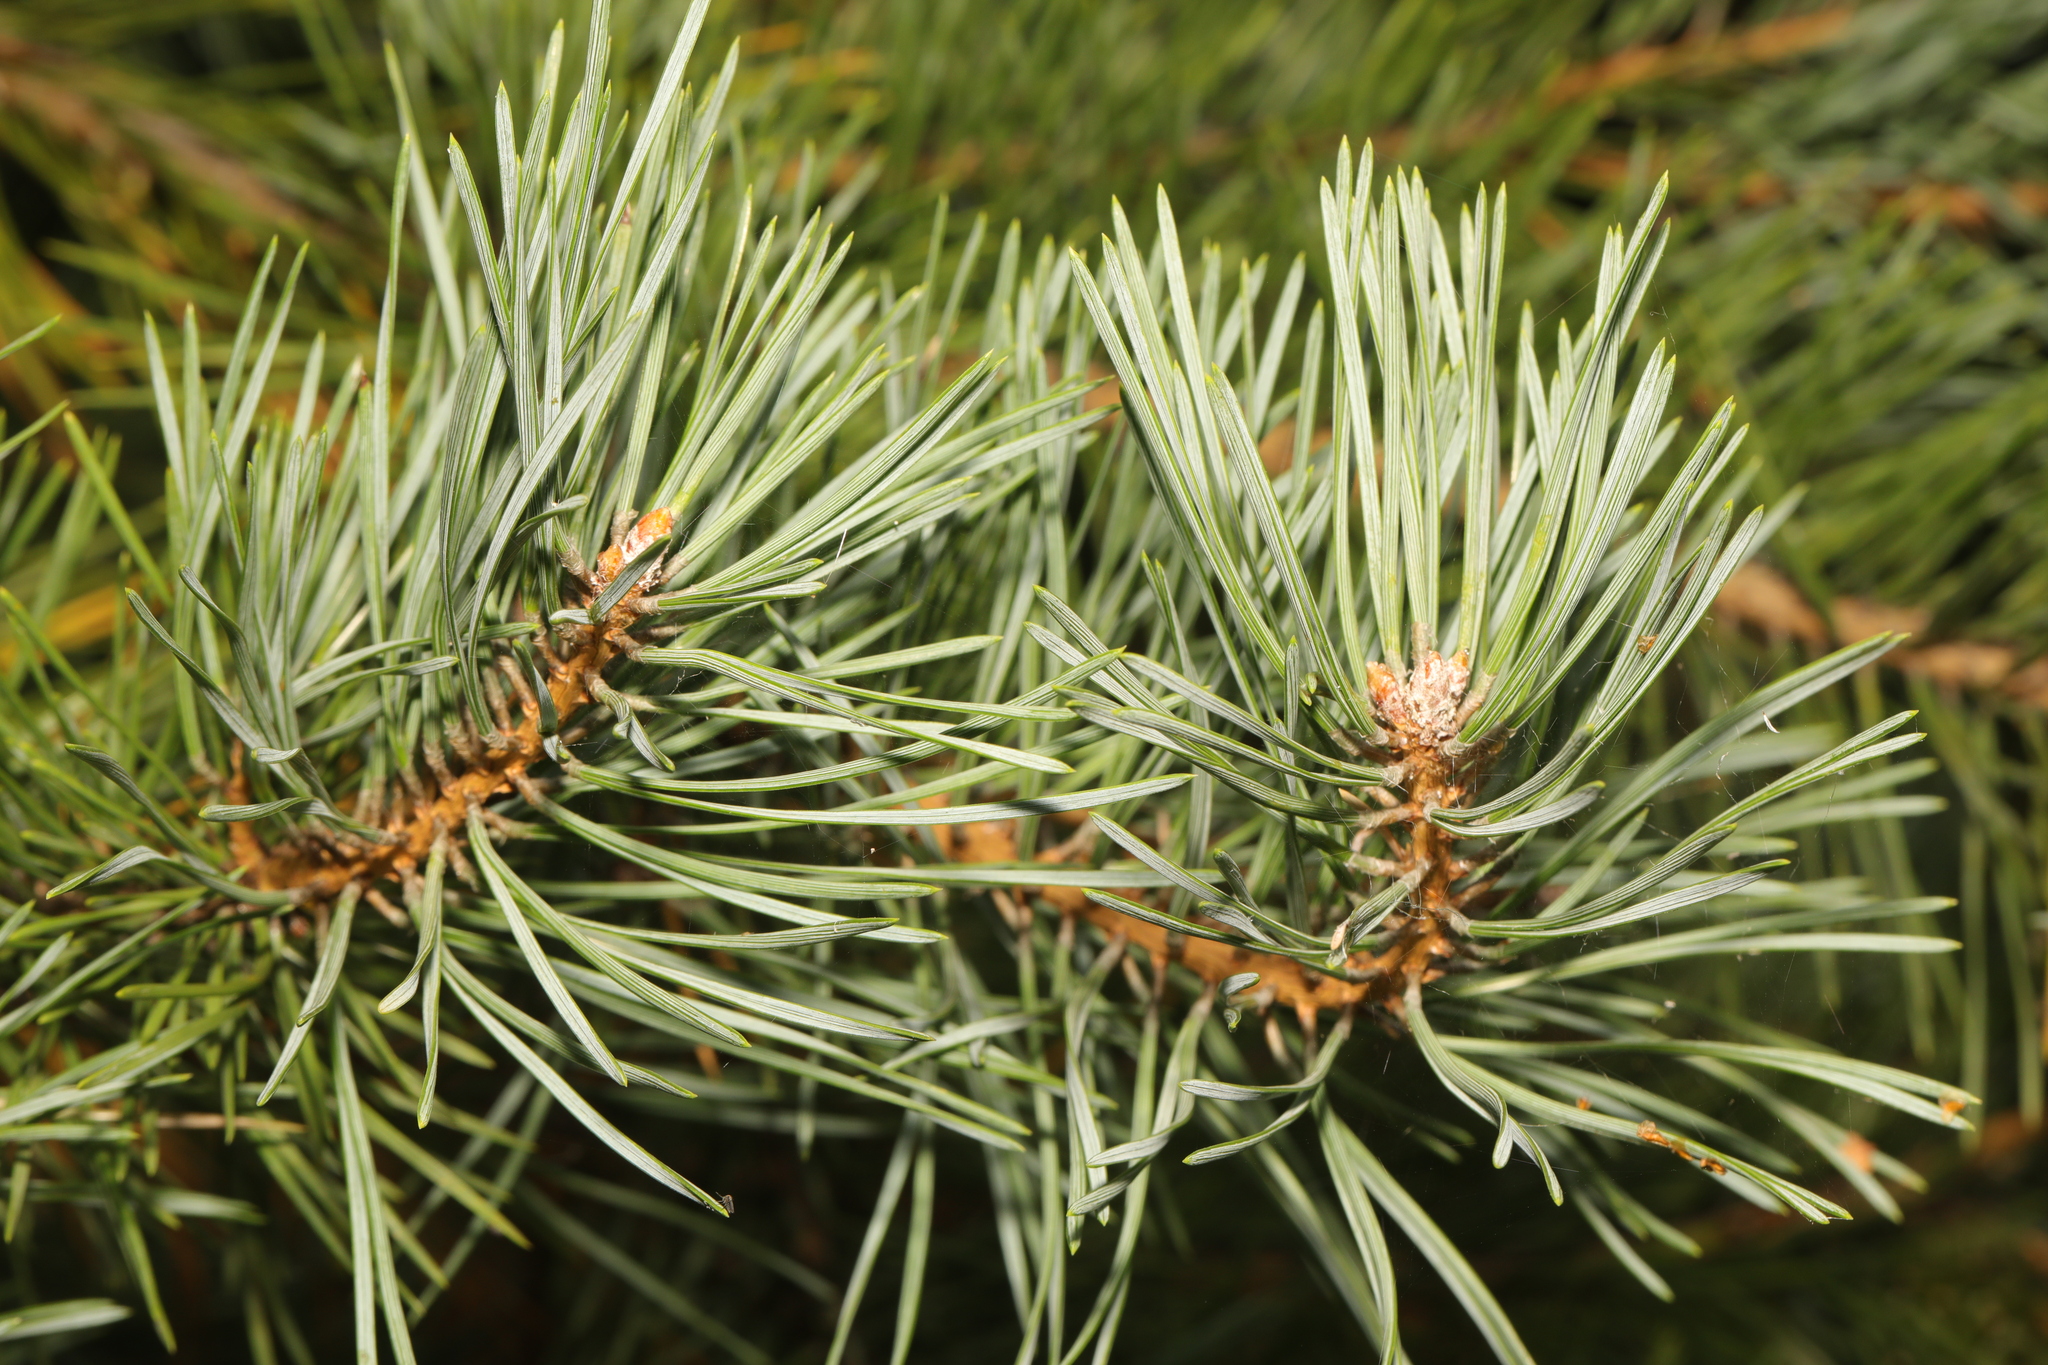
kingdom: Plantae
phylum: Tracheophyta
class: Pinopsida
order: Pinales
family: Pinaceae
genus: Pinus
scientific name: Pinus sylvestris
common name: Scots pine
